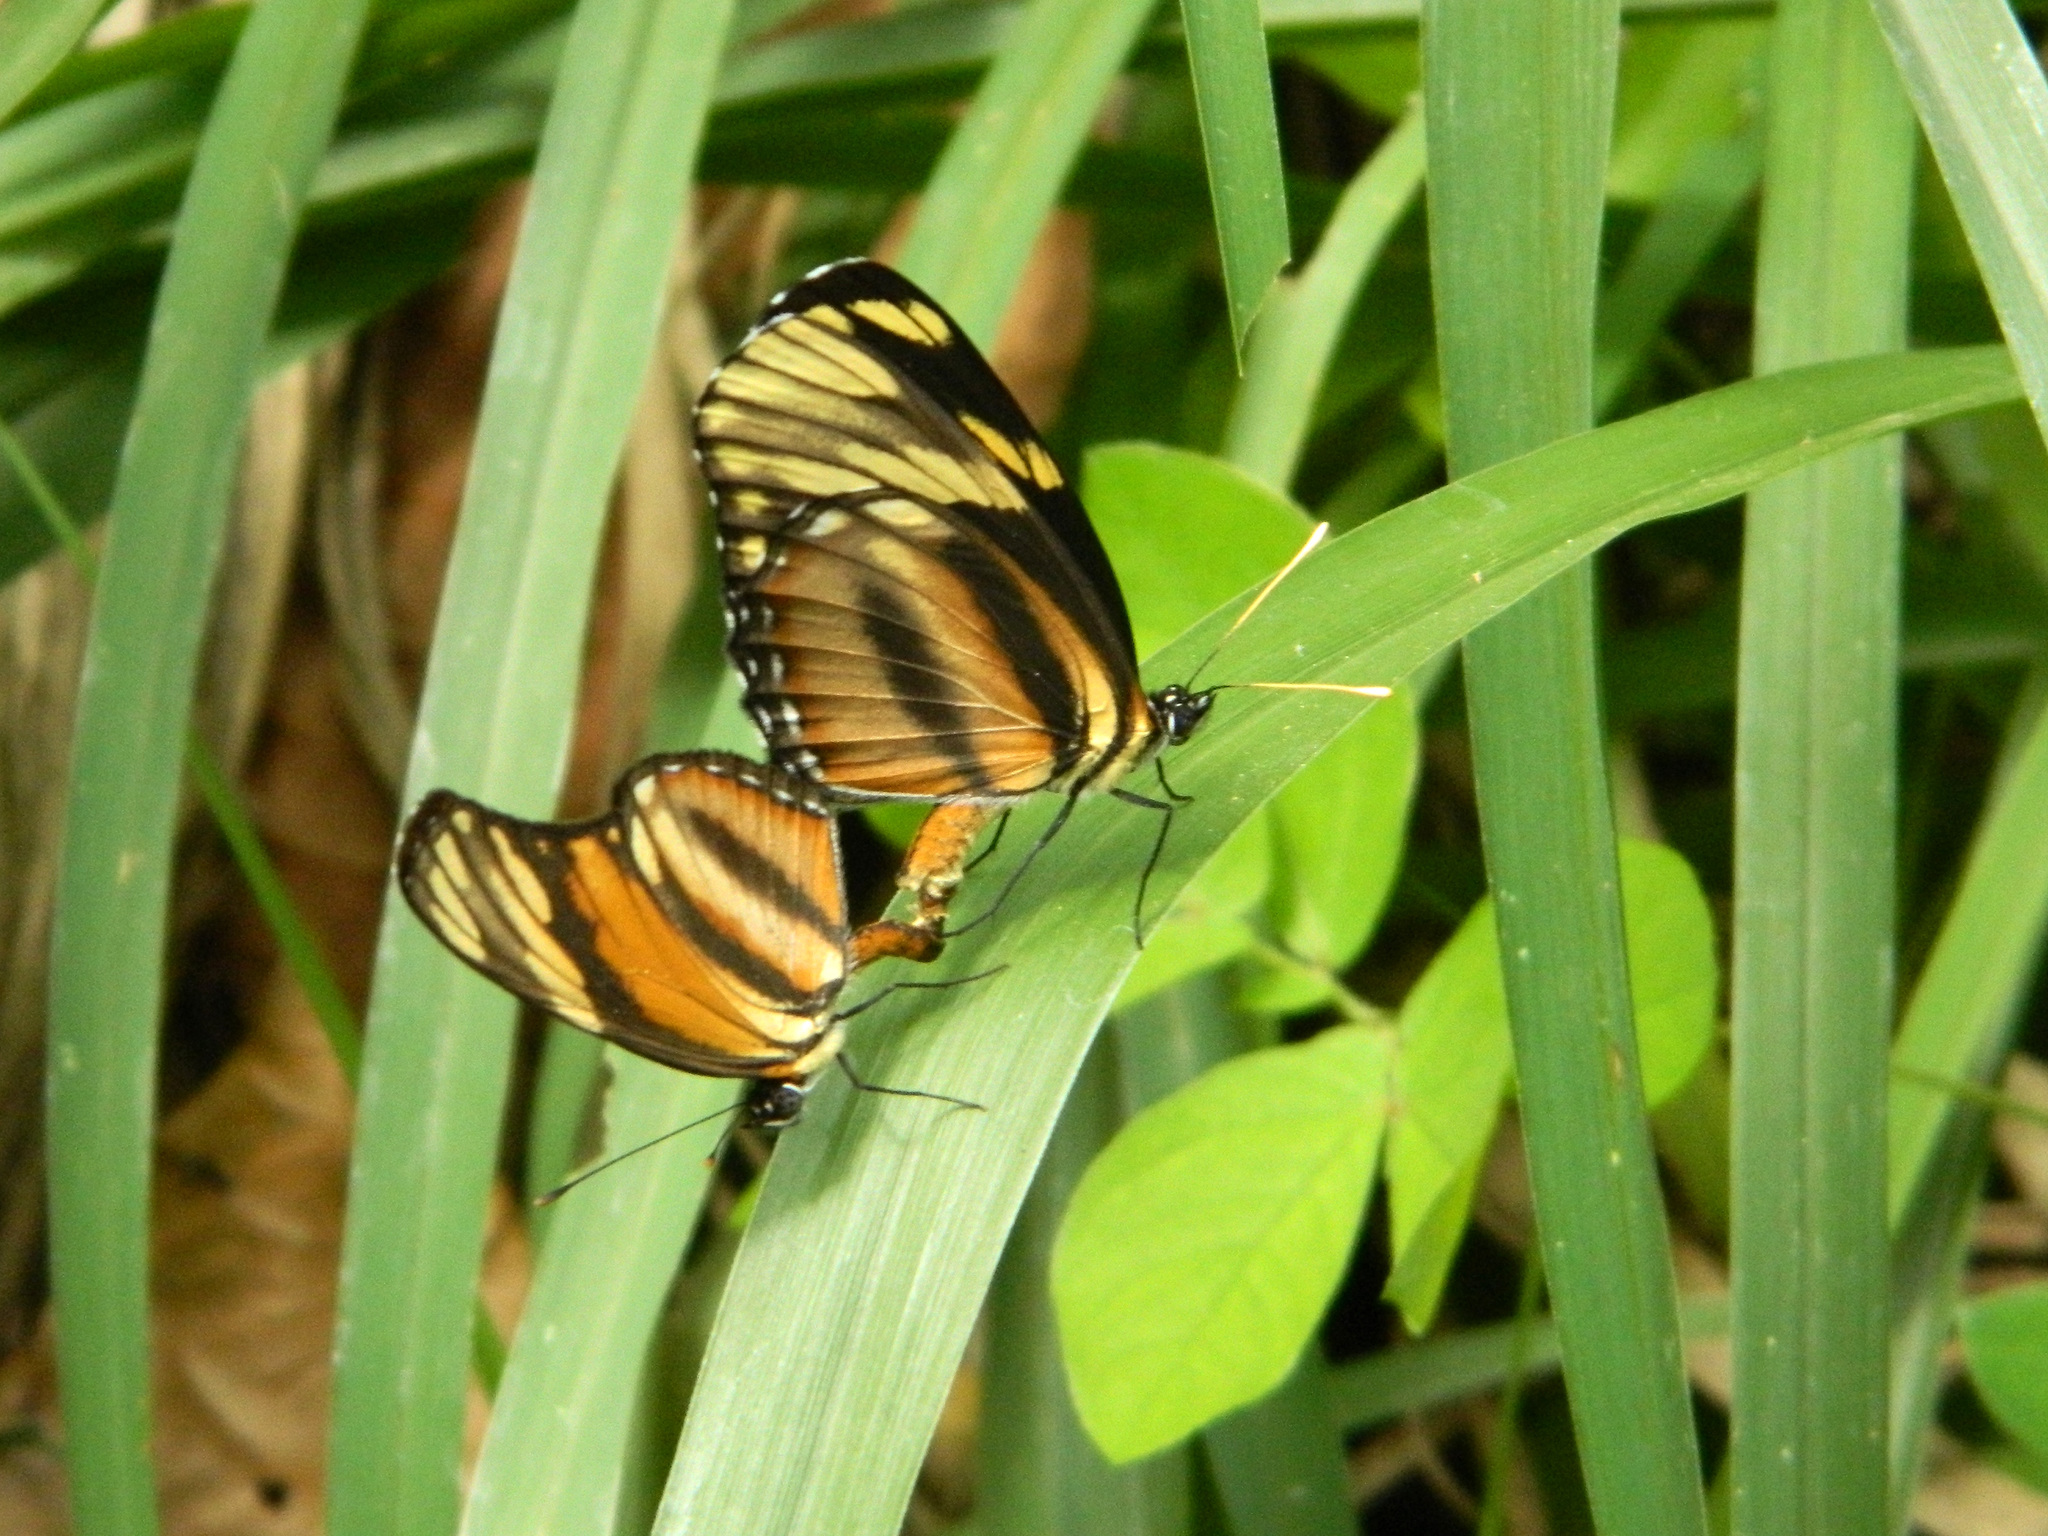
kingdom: Animalia
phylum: Arthropoda
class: Insecta
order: Lepidoptera
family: Nymphalidae
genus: Eresia
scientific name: Eresia phillyra
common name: Longwing crescent
